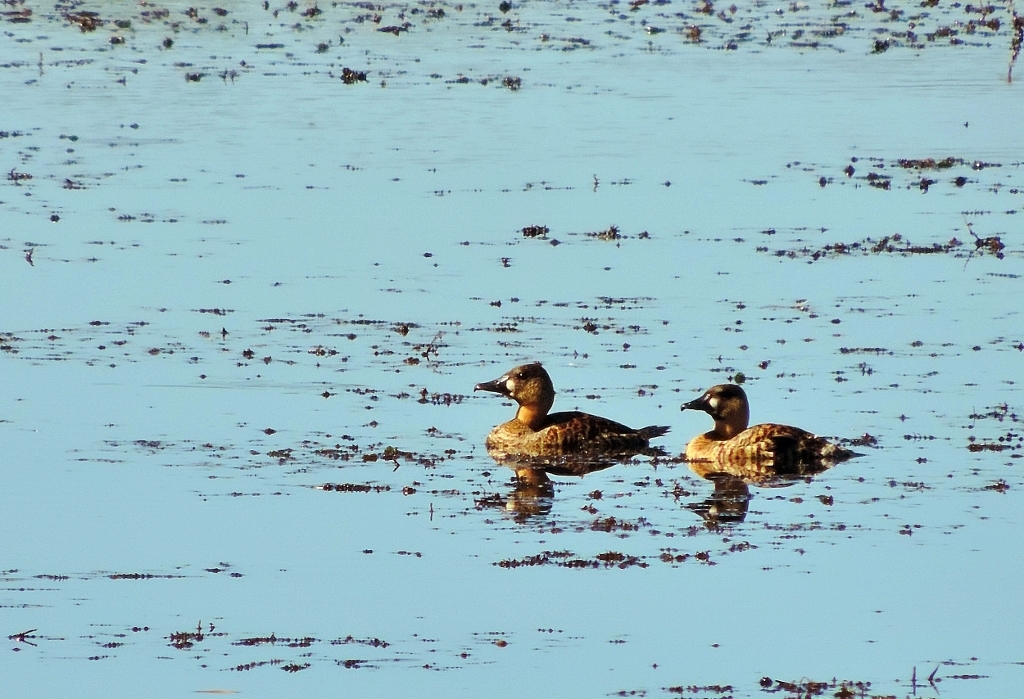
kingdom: Animalia
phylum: Chordata
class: Aves
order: Anseriformes
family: Anatidae
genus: Thalassornis
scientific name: Thalassornis leuconotus
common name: White-backed duck
